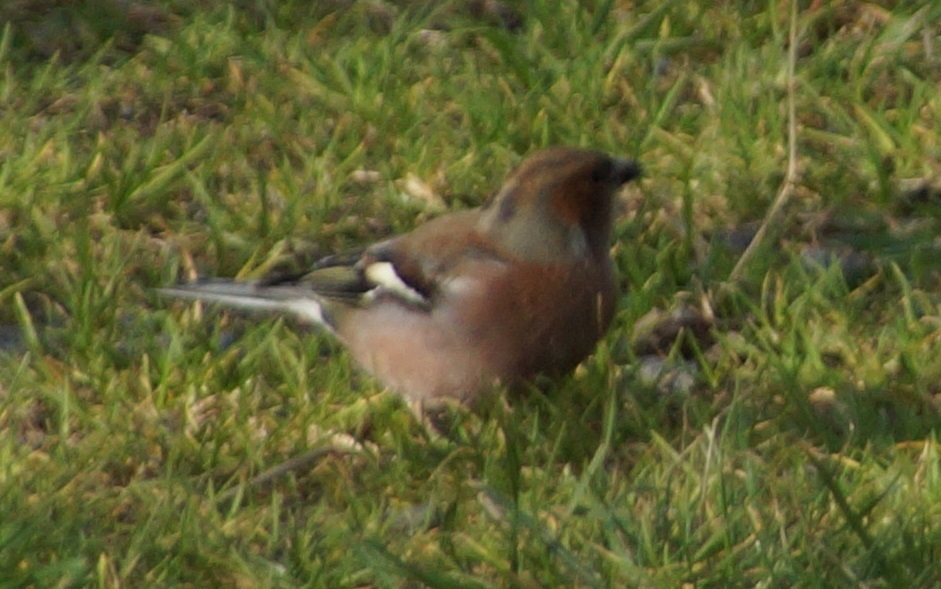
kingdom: Animalia
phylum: Chordata
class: Aves
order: Passeriformes
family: Fringillidae
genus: Fringilla
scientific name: Fringilla coelebs
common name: Common chaffinch
